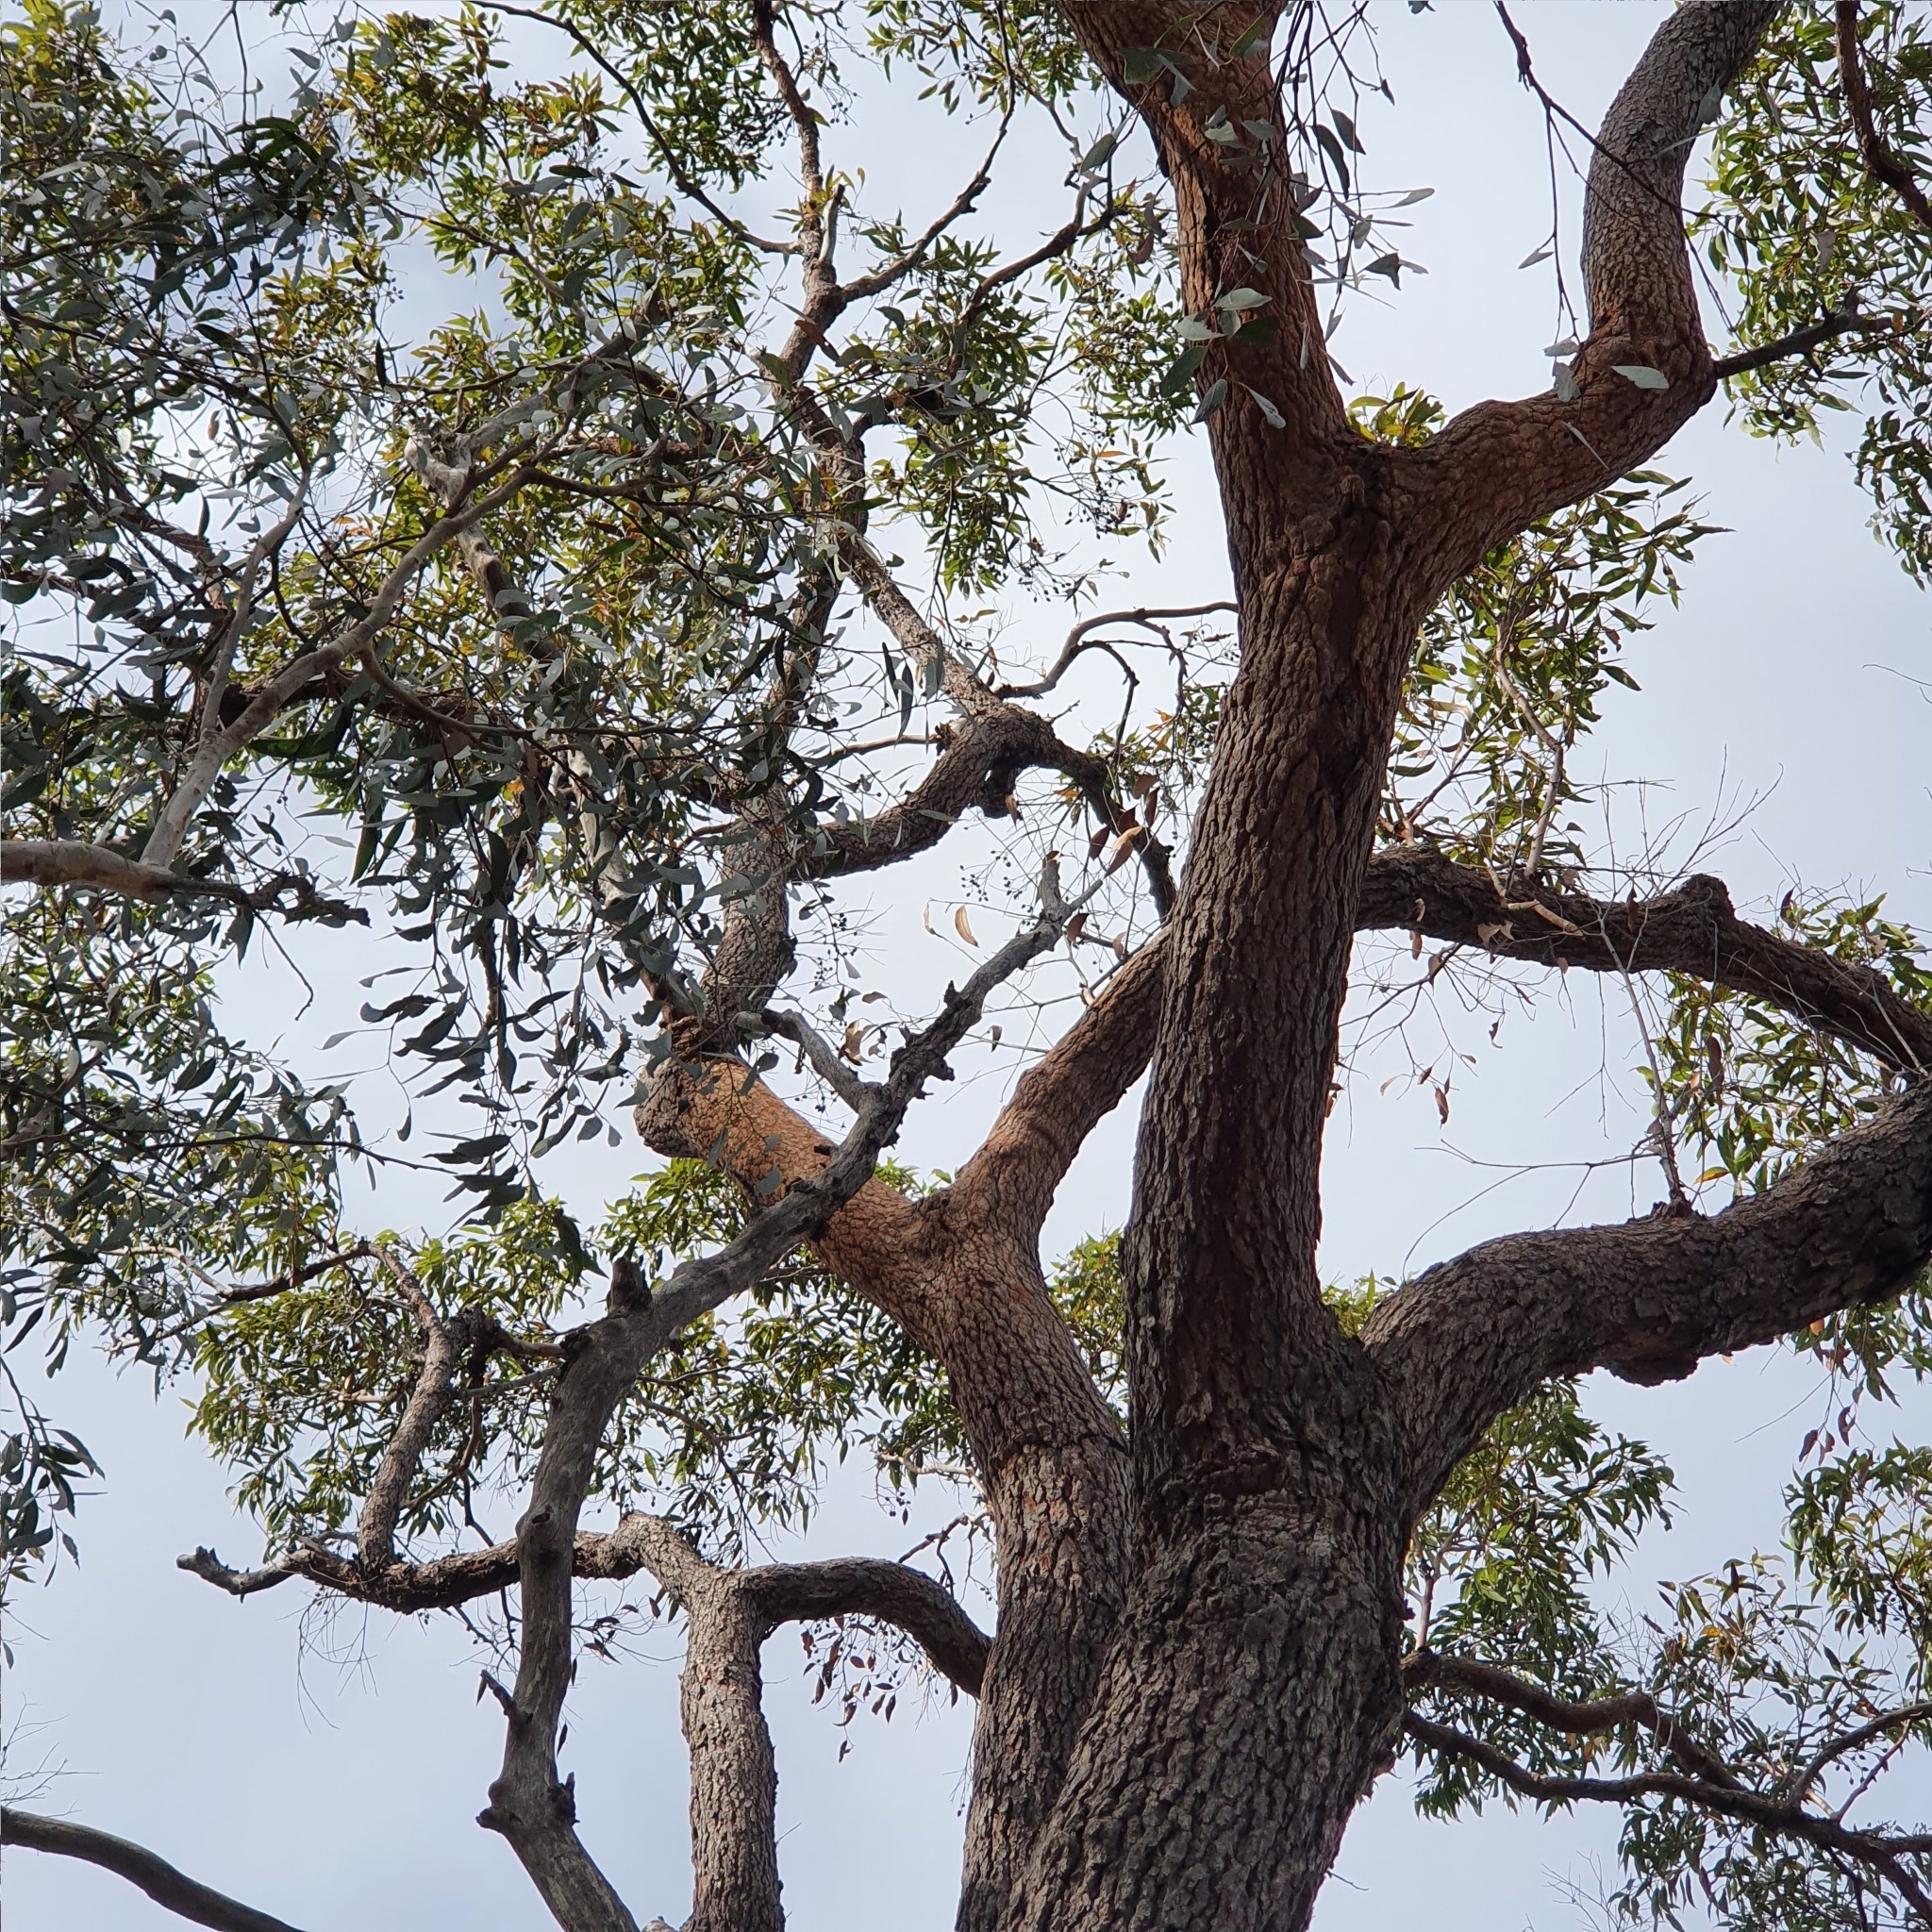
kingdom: Plantae
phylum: Tracheophyta
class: Magnoliopsida
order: Myrtales
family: Myrtaceae
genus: Corymbia
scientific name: Corymbia gummifera
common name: Red bloodwood
